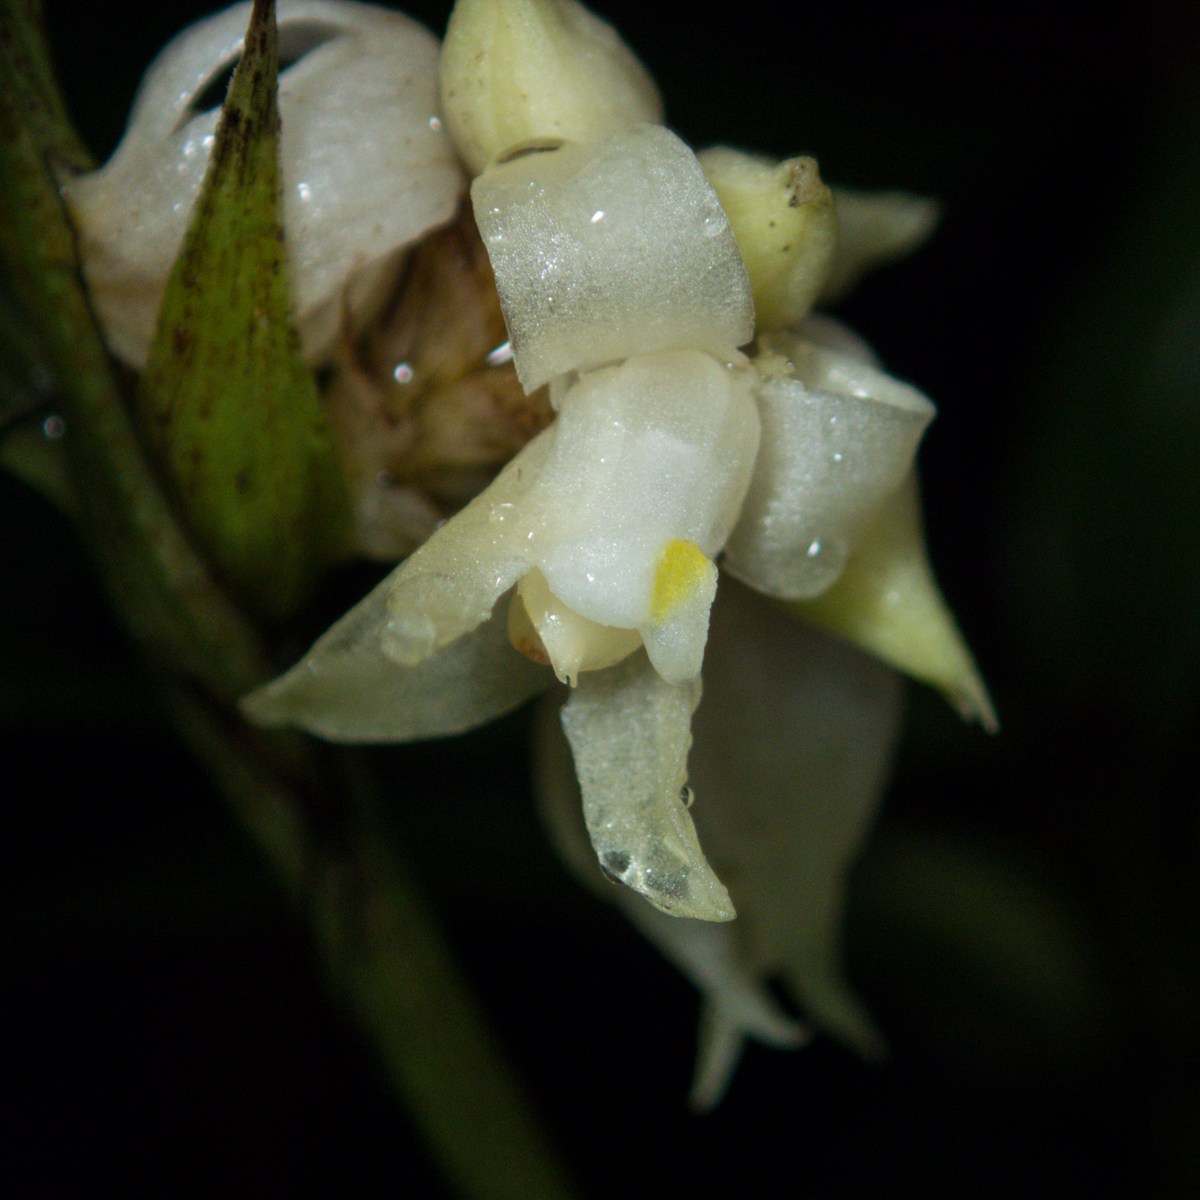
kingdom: Plantae
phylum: Tracheophyta
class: Liliopsida
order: Asparagales
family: Orchidaceae
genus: Tropidia
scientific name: Tropidia curculigoides
